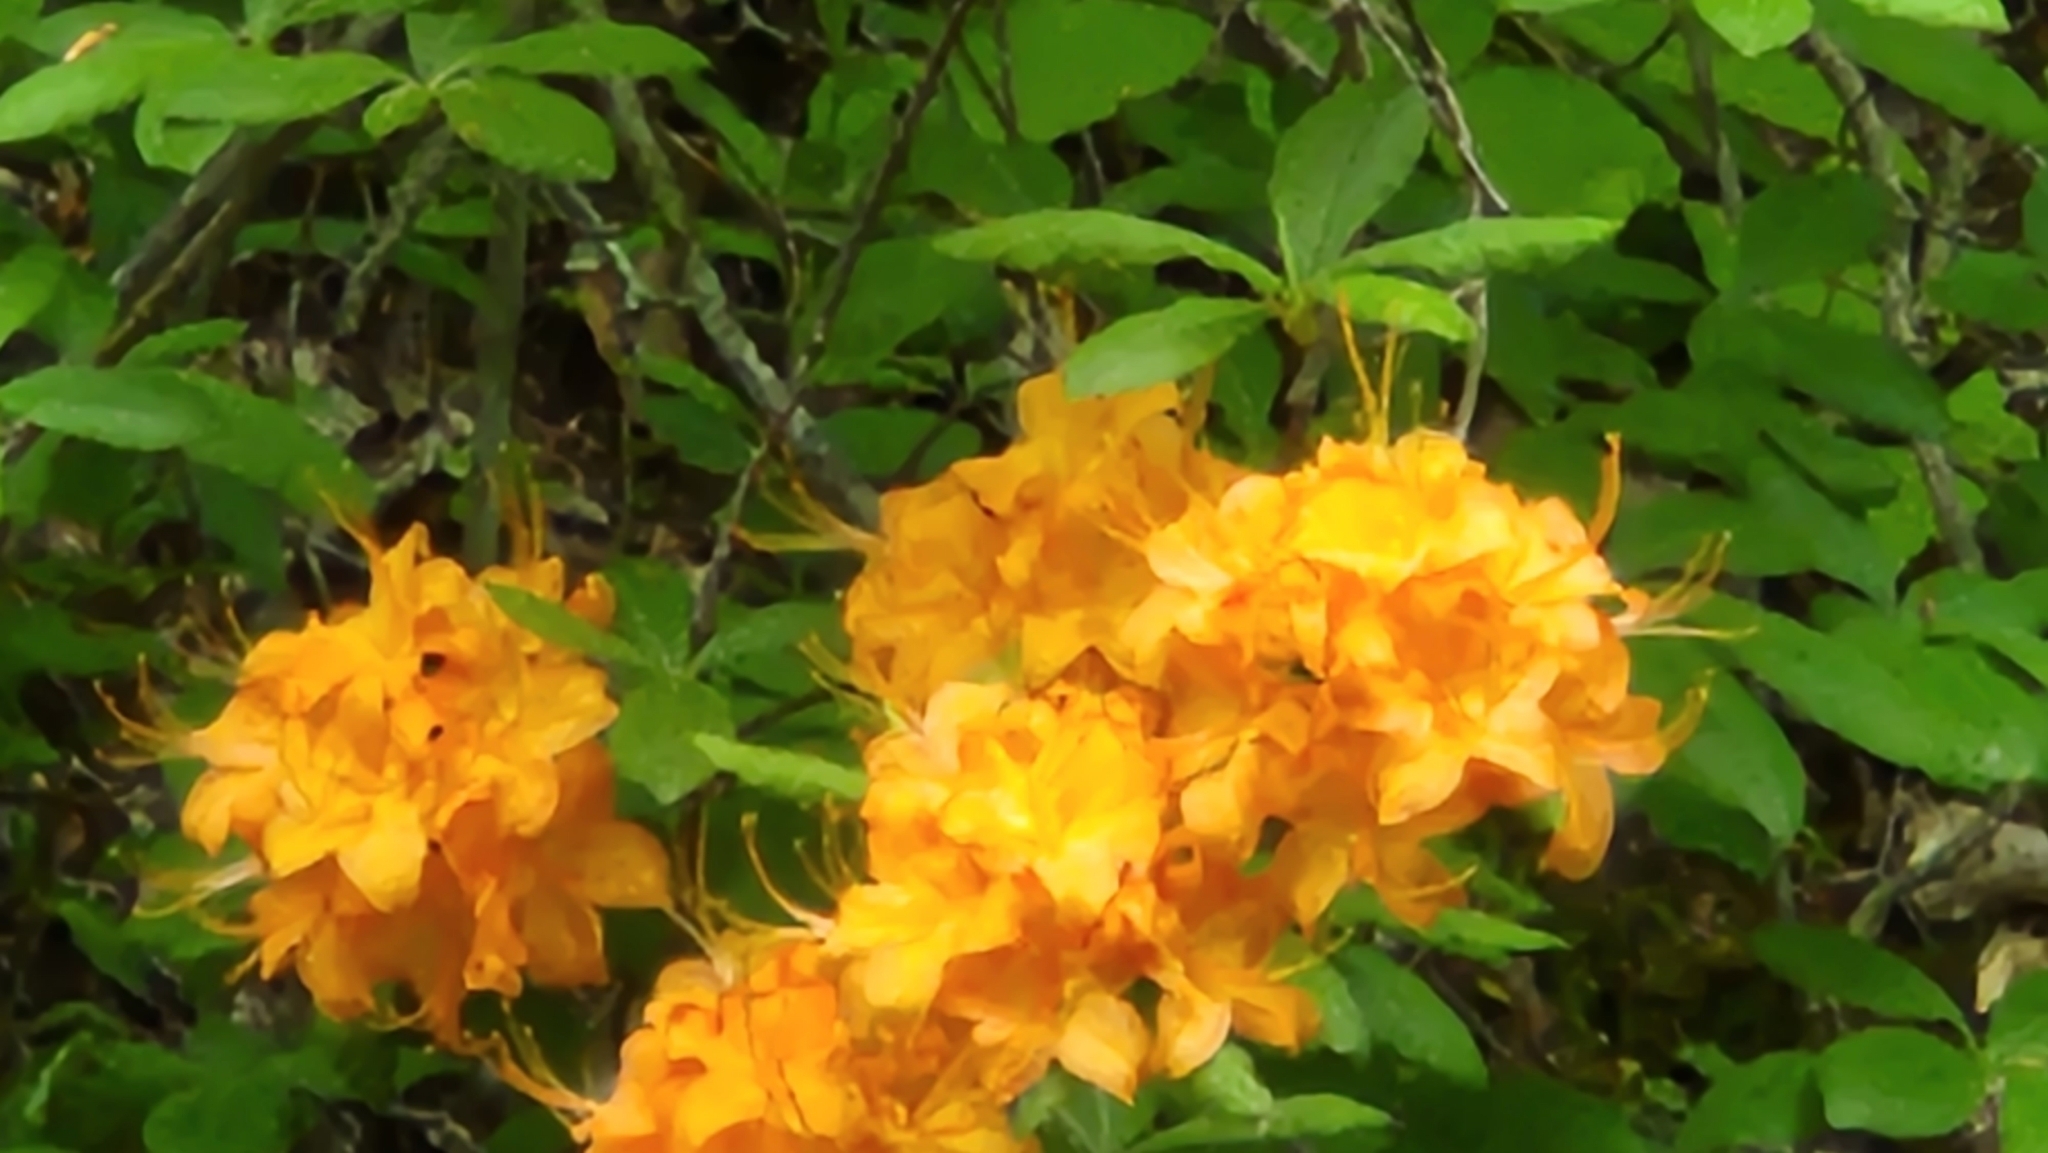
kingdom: Plantae
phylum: Tracheophyta
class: Magnoliopsida
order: Ericales
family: Ericaceae
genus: Rhododendron
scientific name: Rhododendron calendulaceum
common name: Flame azalea
